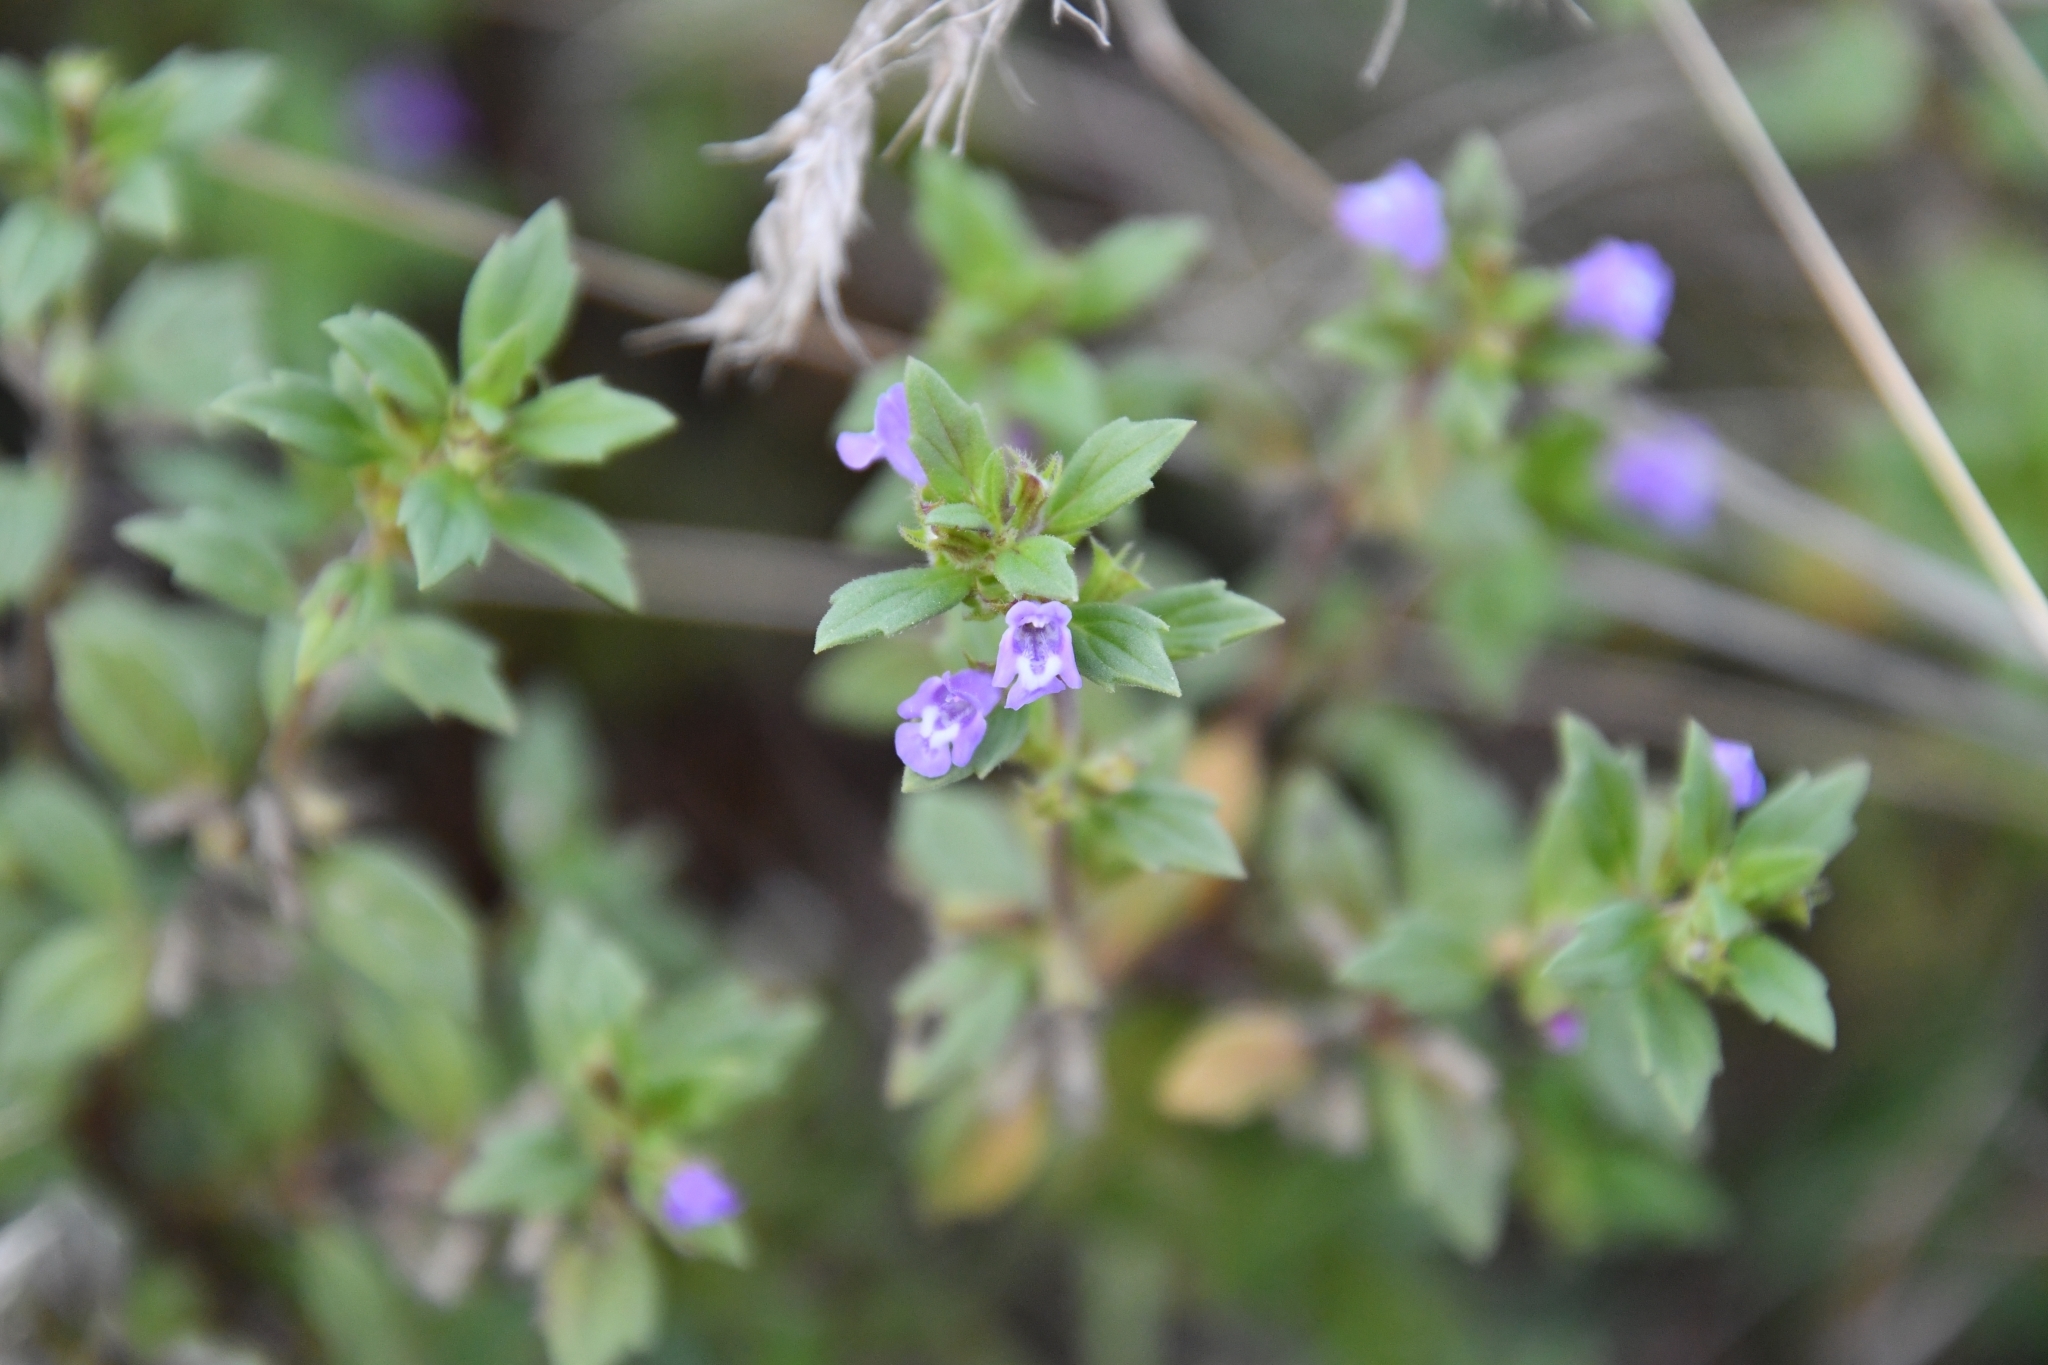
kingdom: Plantae
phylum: Tracheophyta
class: Magnoliopsida
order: Lamiales
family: Lamiaceae
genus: Clinopodium
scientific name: Clinopodium acinos
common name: Basil thyme
